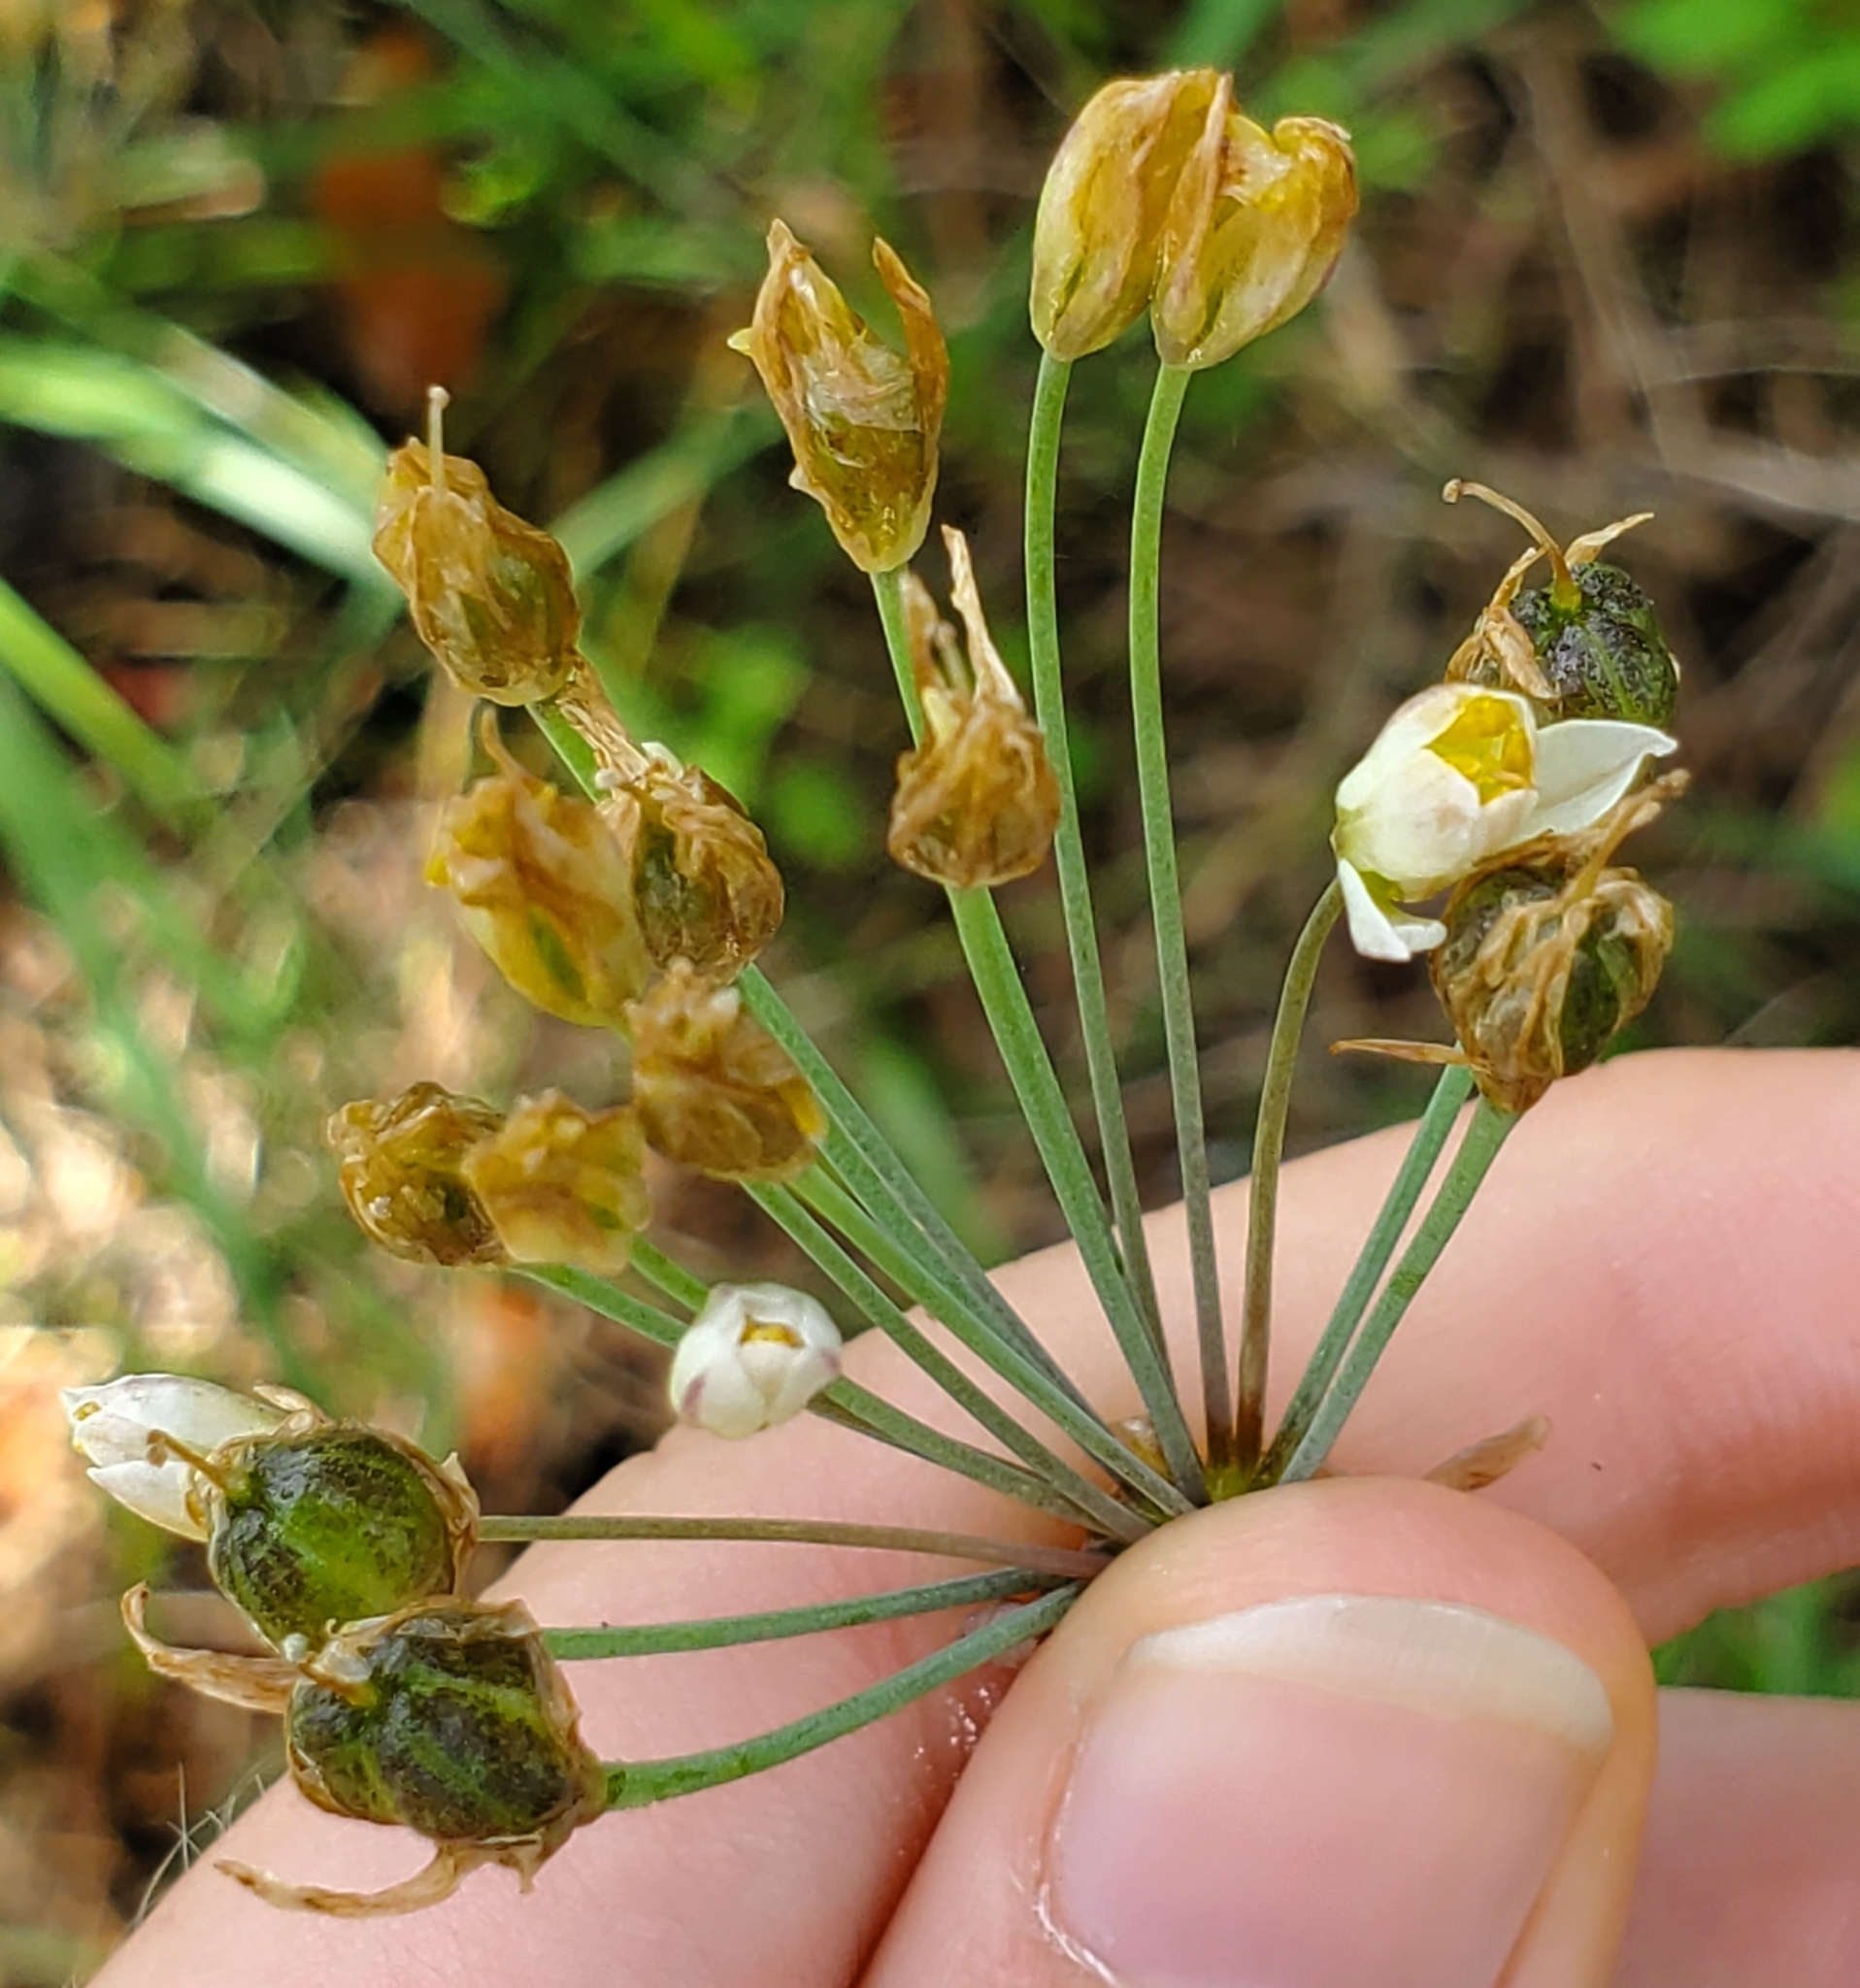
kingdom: Plantae
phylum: Tracheophyta
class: Liliopsida
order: Asparagales
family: Amaryllidaceae
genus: Nothoscordum
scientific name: Nothoscordum bivalve
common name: Crow-poison
